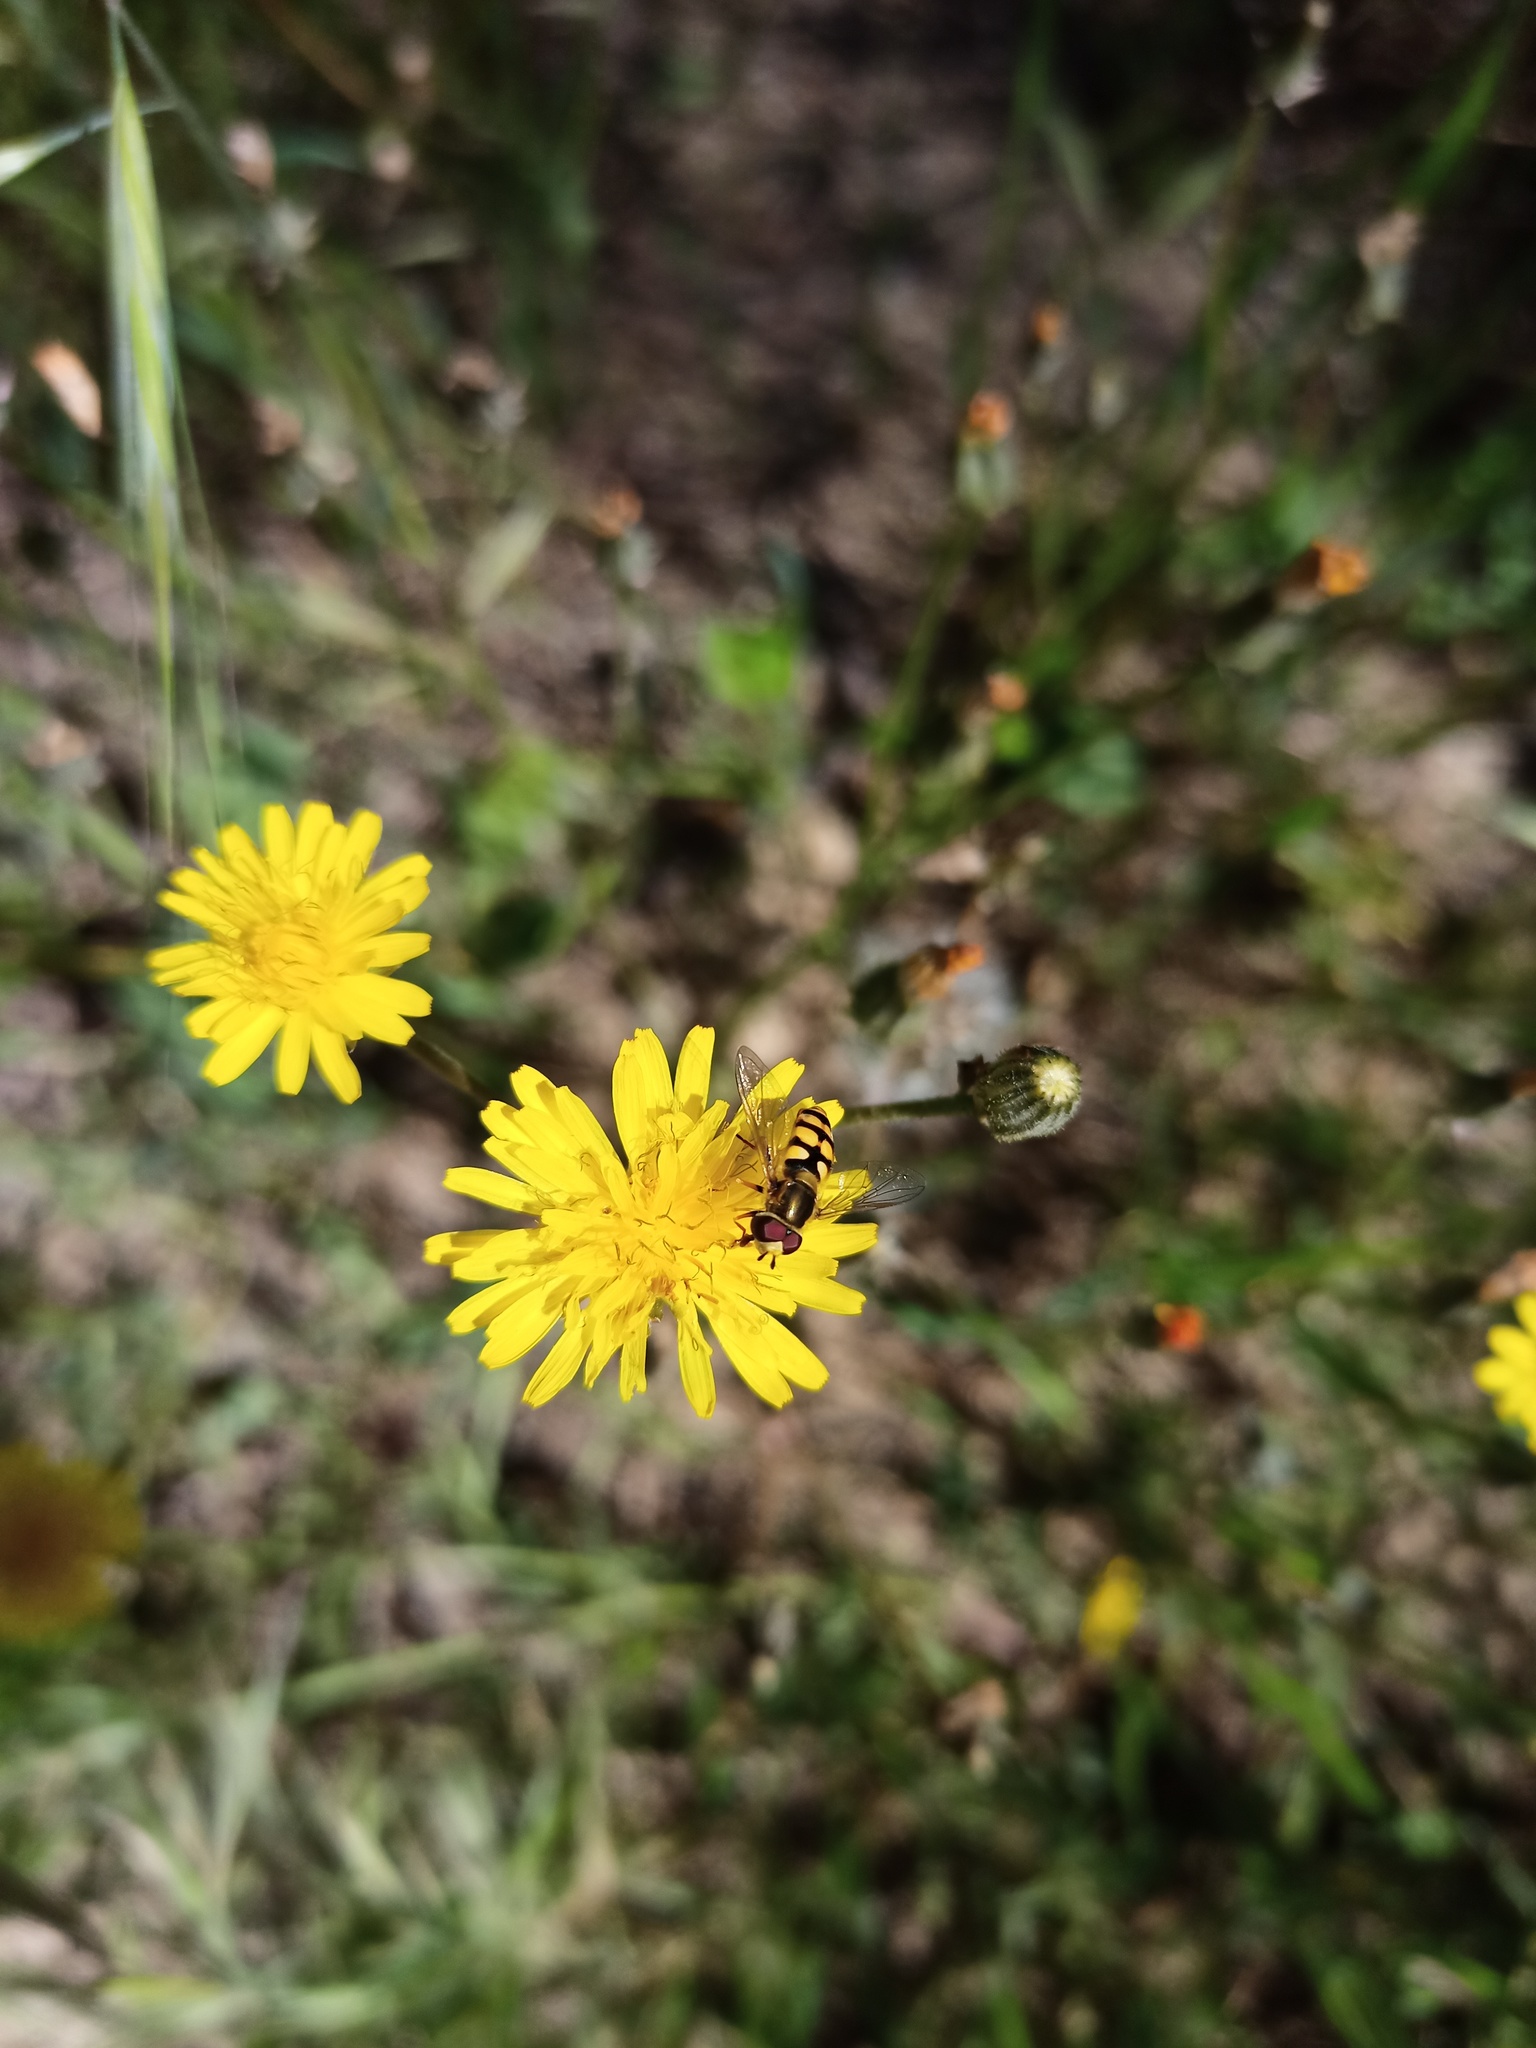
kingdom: Animalia
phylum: Arthropoda
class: Insecta
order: Diptera
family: Syrphidae
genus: Eupeodes
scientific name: Eupeodes corollae
